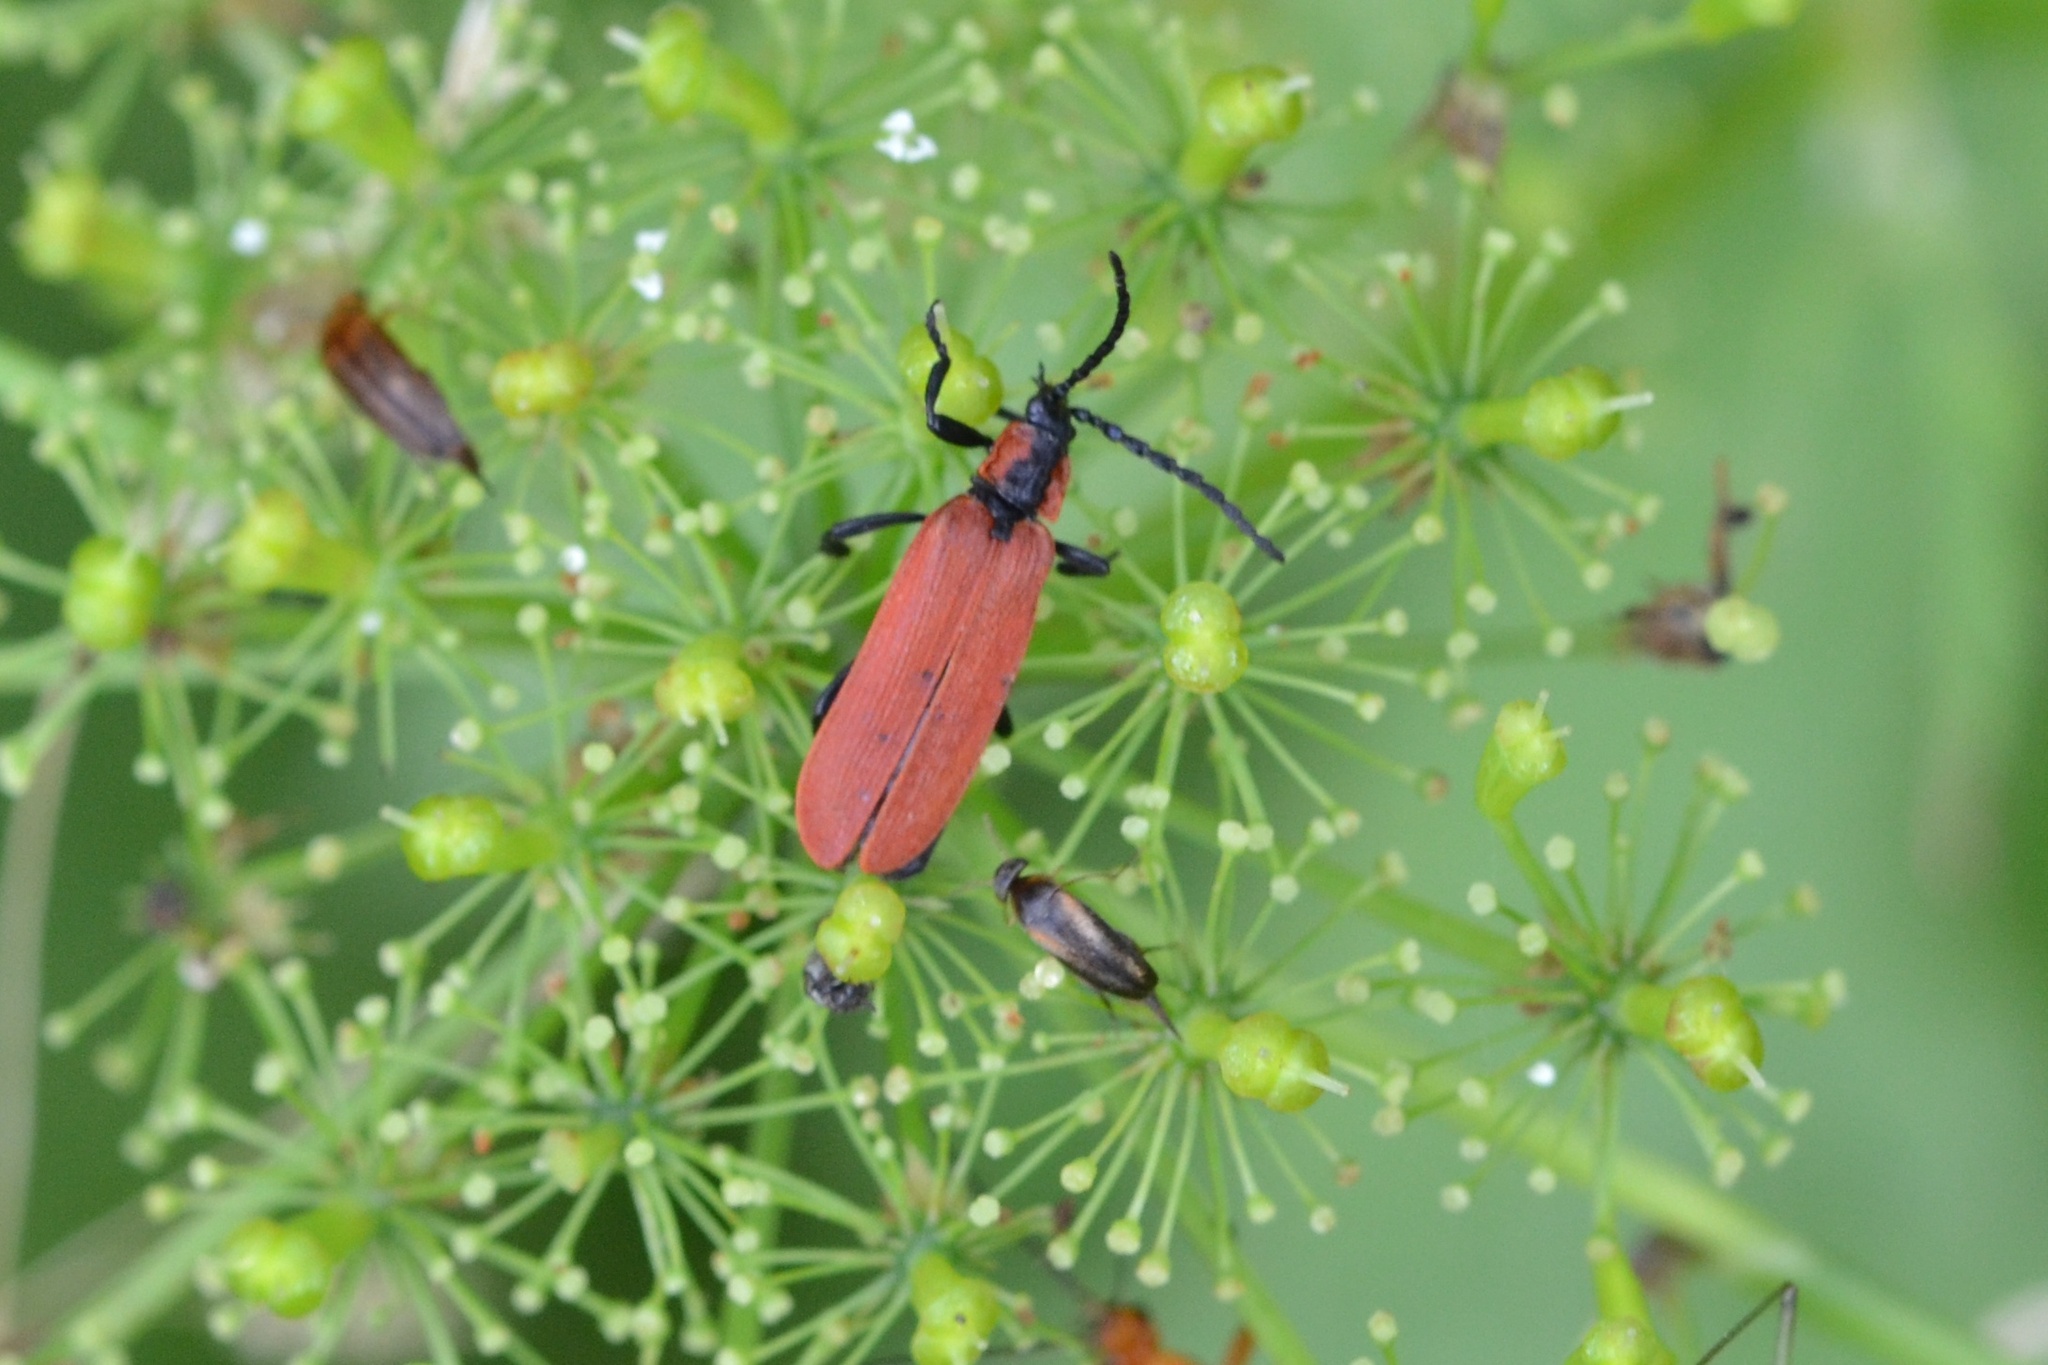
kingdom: Animalia
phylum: Arthropoda
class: Insecta
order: Coleoptera
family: Lycidae
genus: Lygistopterus
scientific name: Lygistopterus sanguineus
